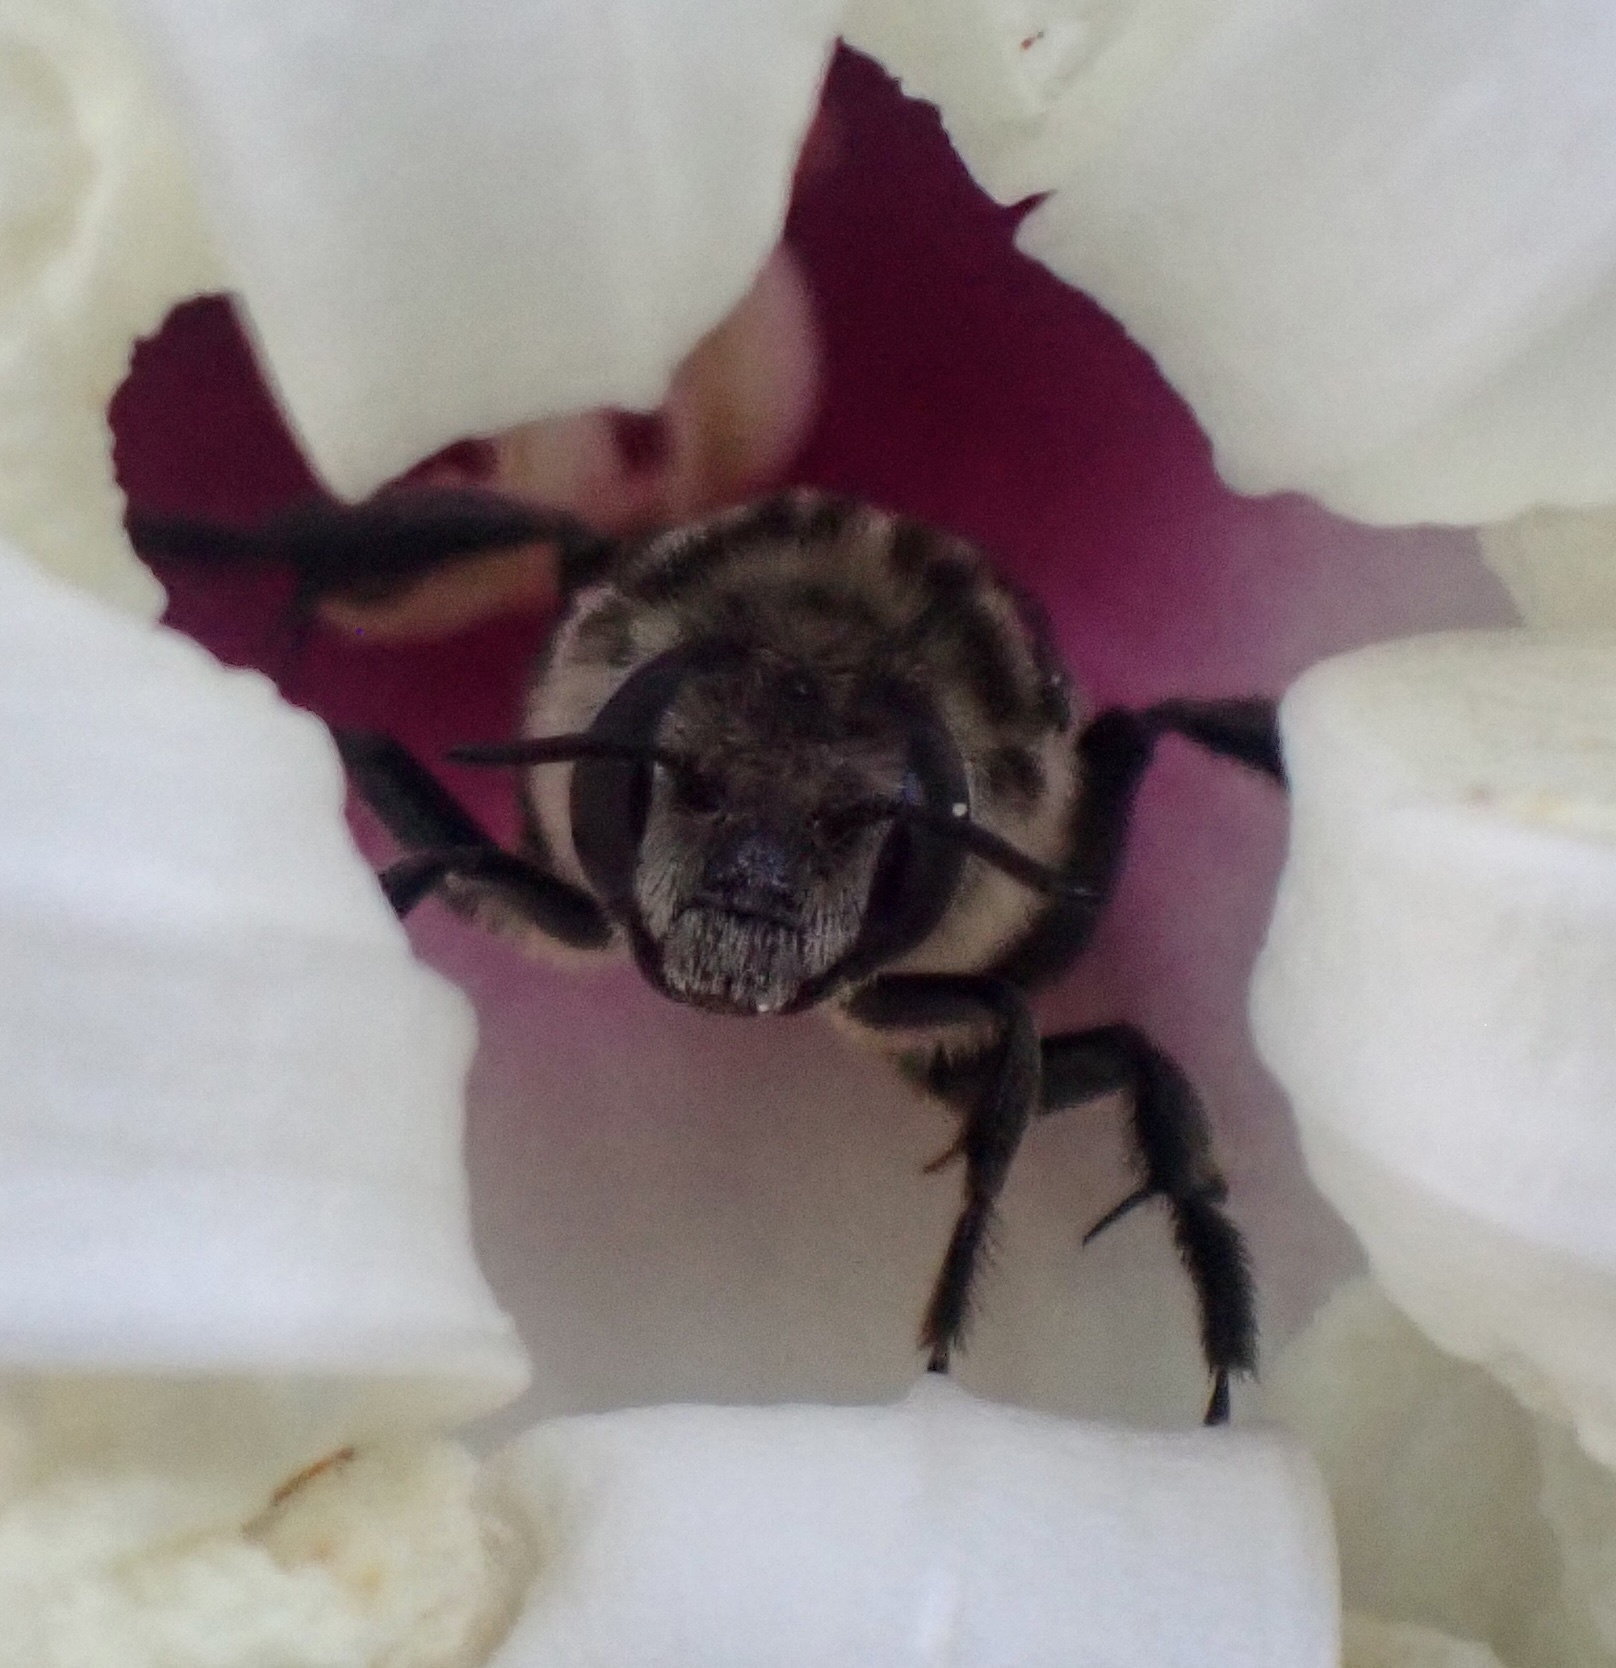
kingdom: Animalia
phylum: Arthropoda
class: Insecta
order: Hymenoptera
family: Apidae
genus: Melitoma
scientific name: Melitoma taurea
